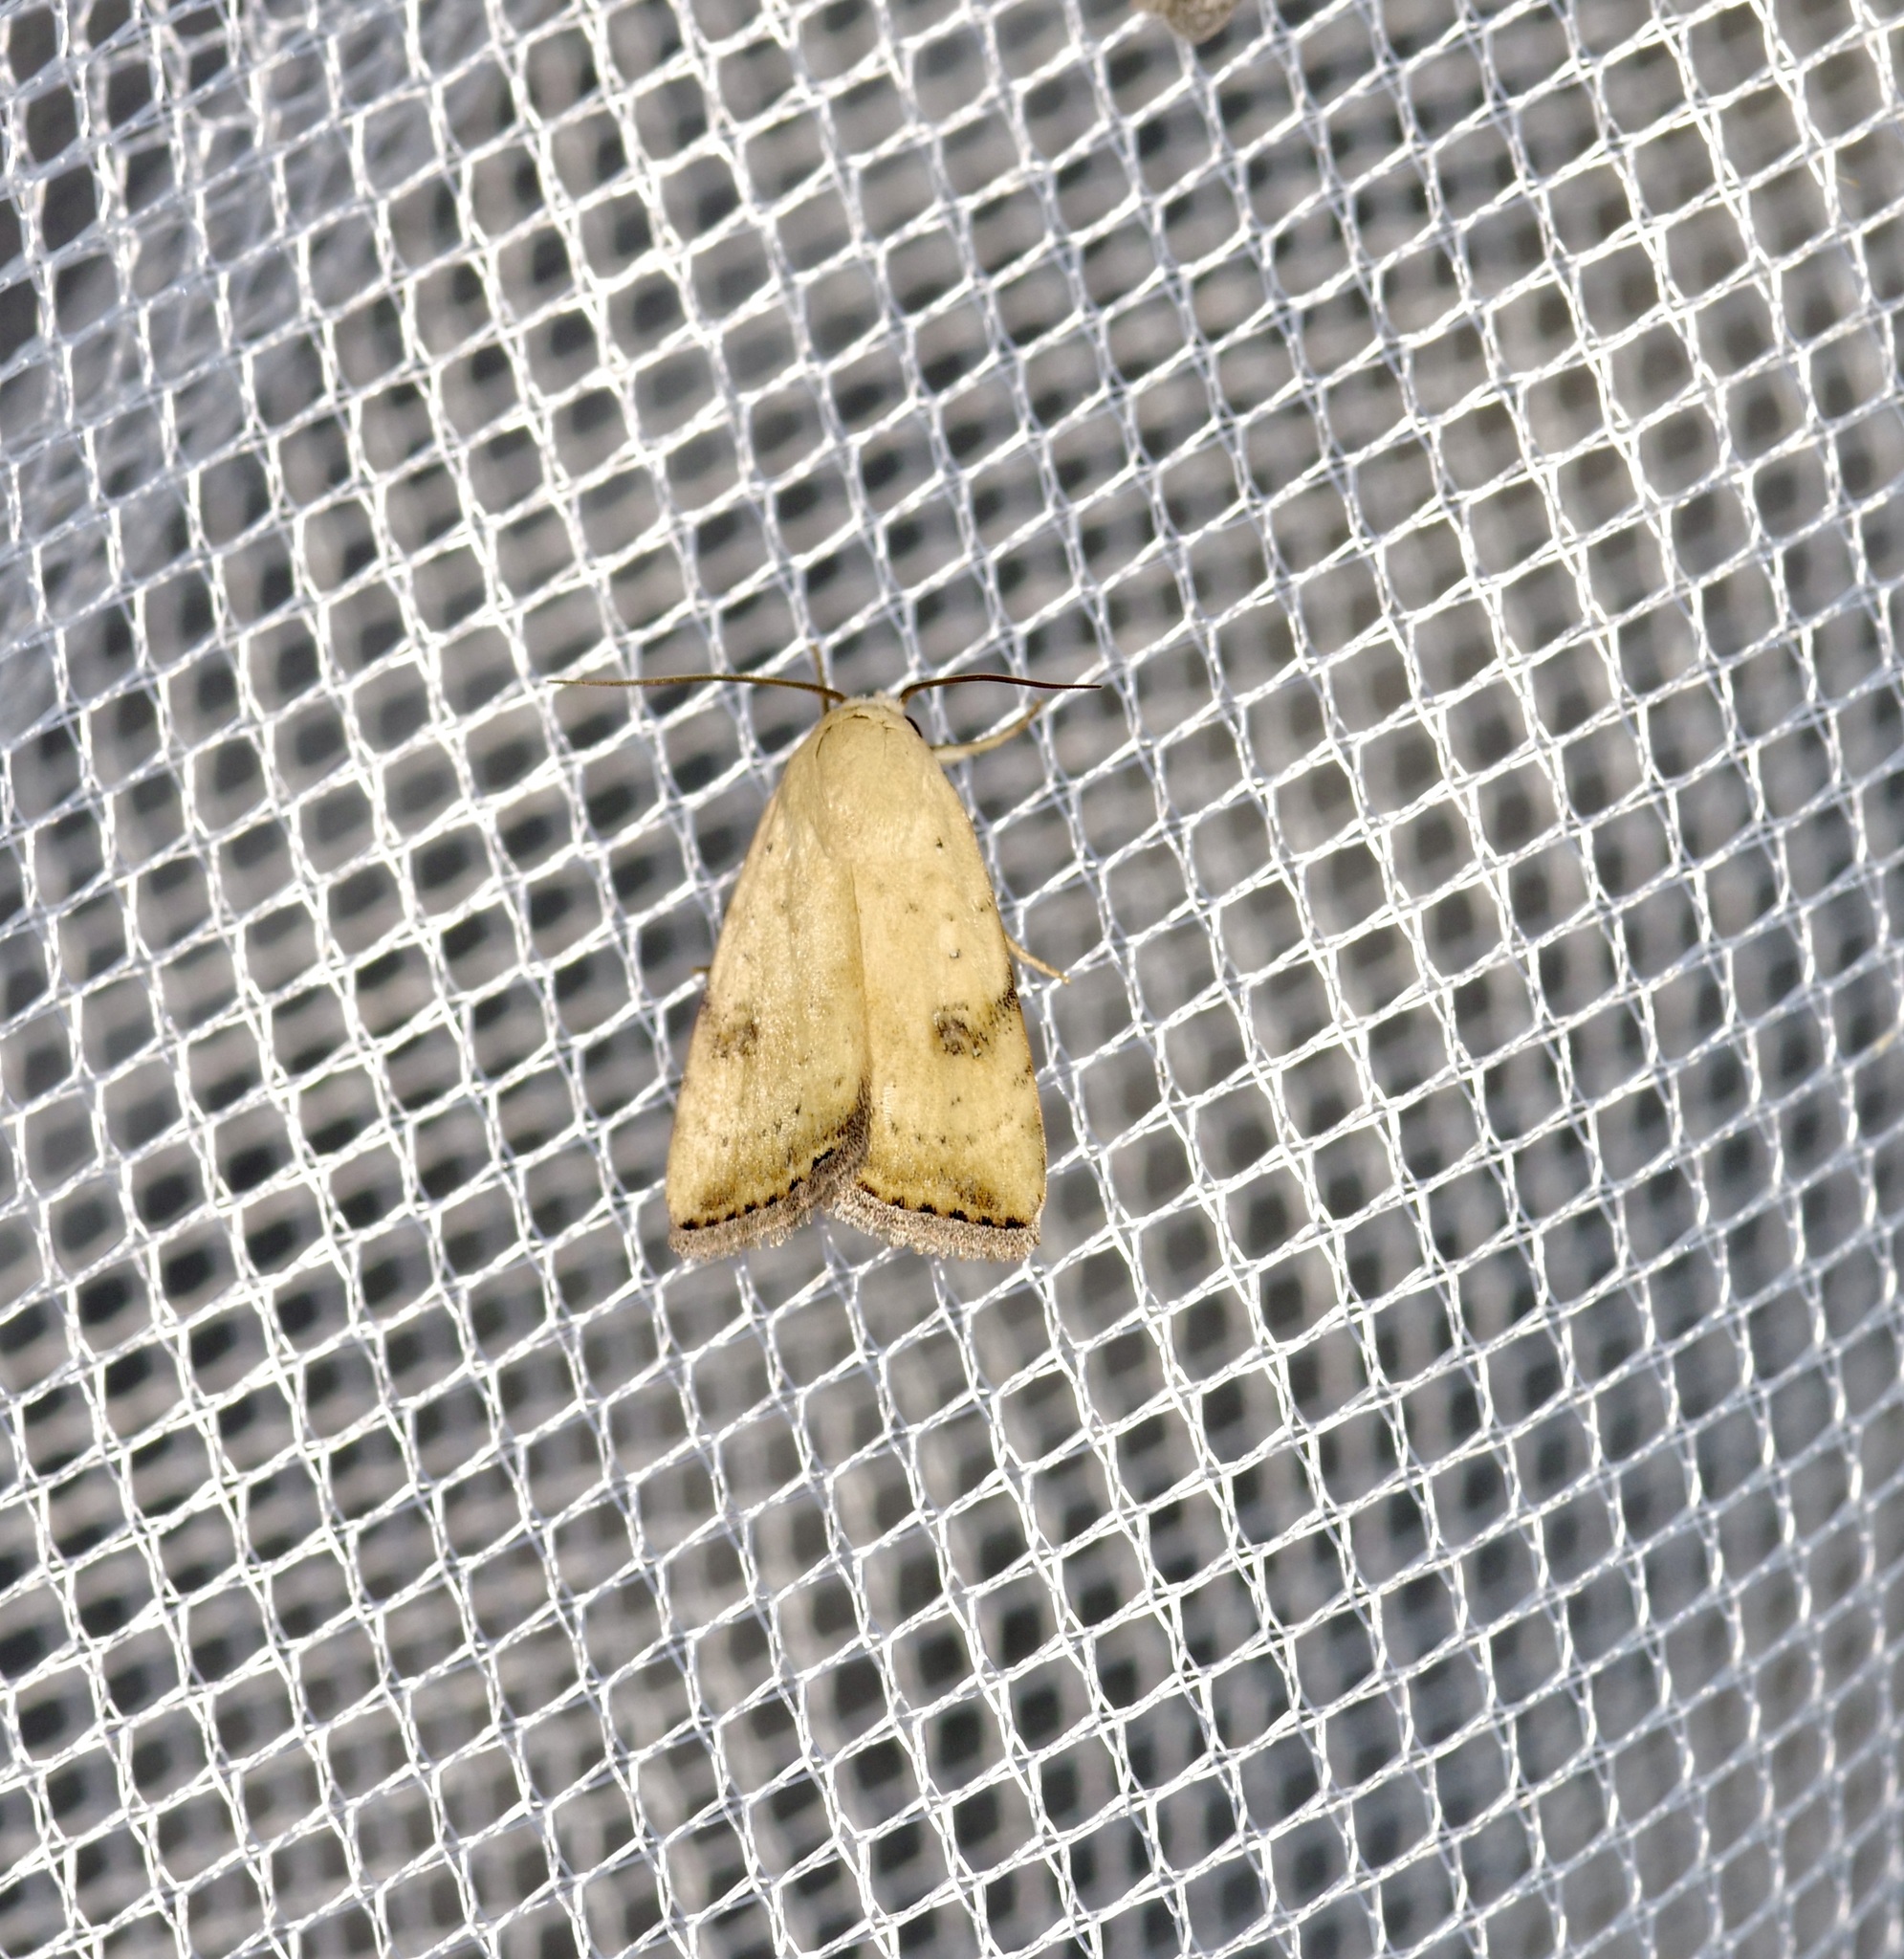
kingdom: Animalia
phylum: Arthropoda
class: Insecta
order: Lepidoptera
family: Noctuidae
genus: Micrathetis
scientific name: Micrathetis triplex
